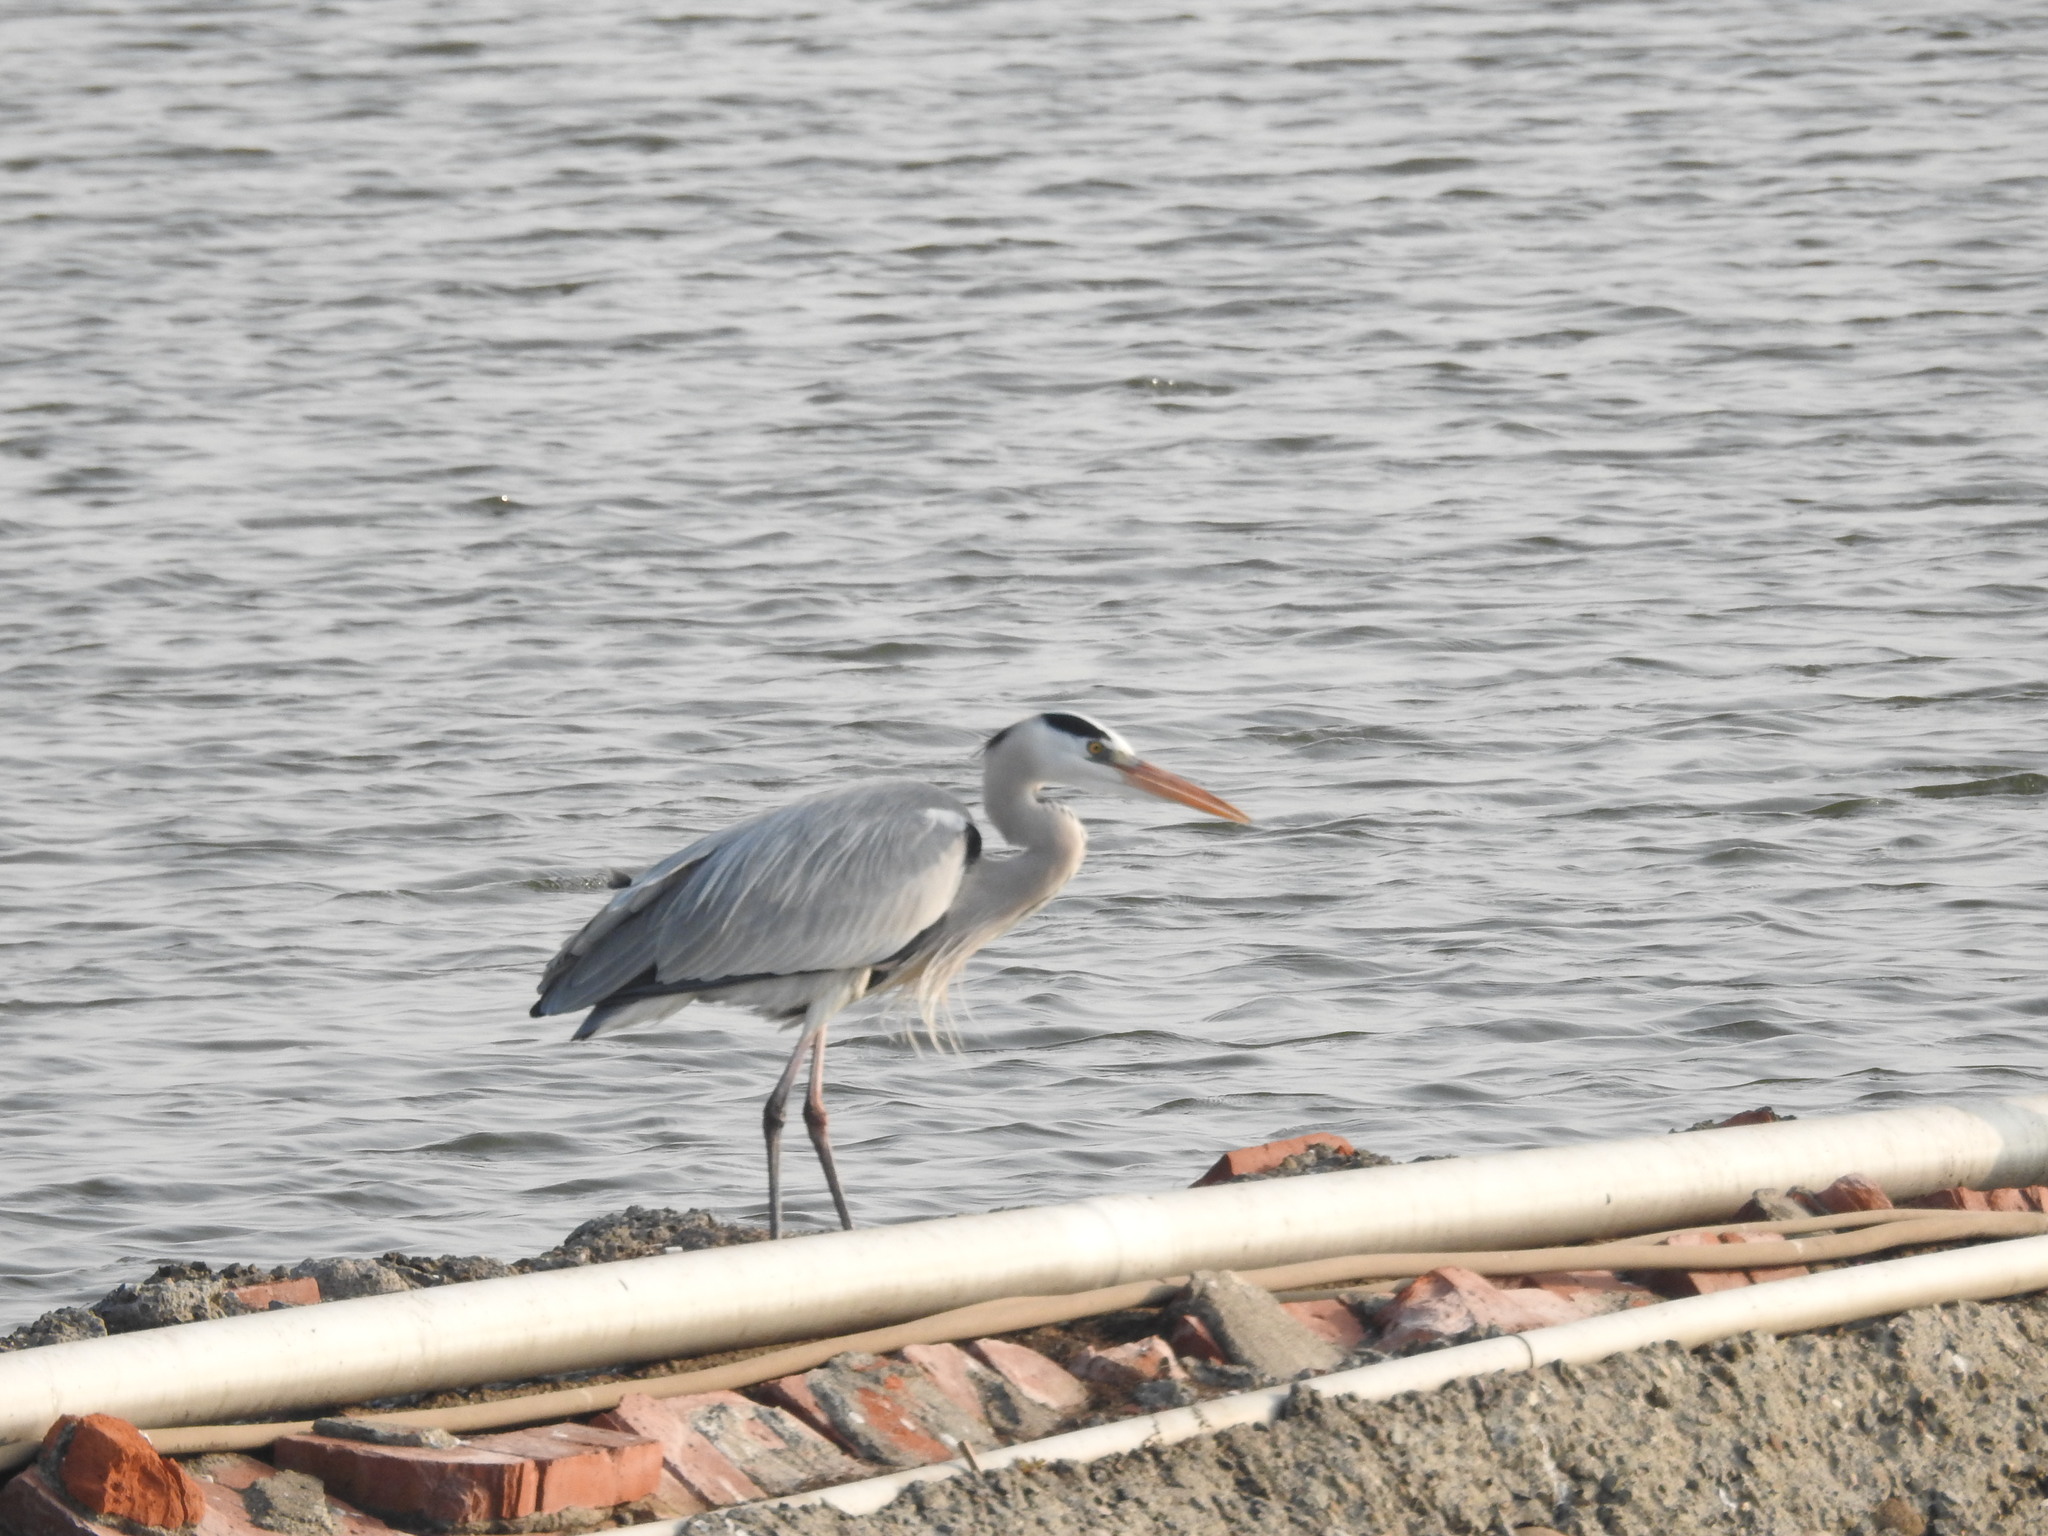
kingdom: Animalia
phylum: Chordata
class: Aves
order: Pelecaniformes
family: Ardeidae
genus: Ardea
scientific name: Ardea cinerea
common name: Grey heron
